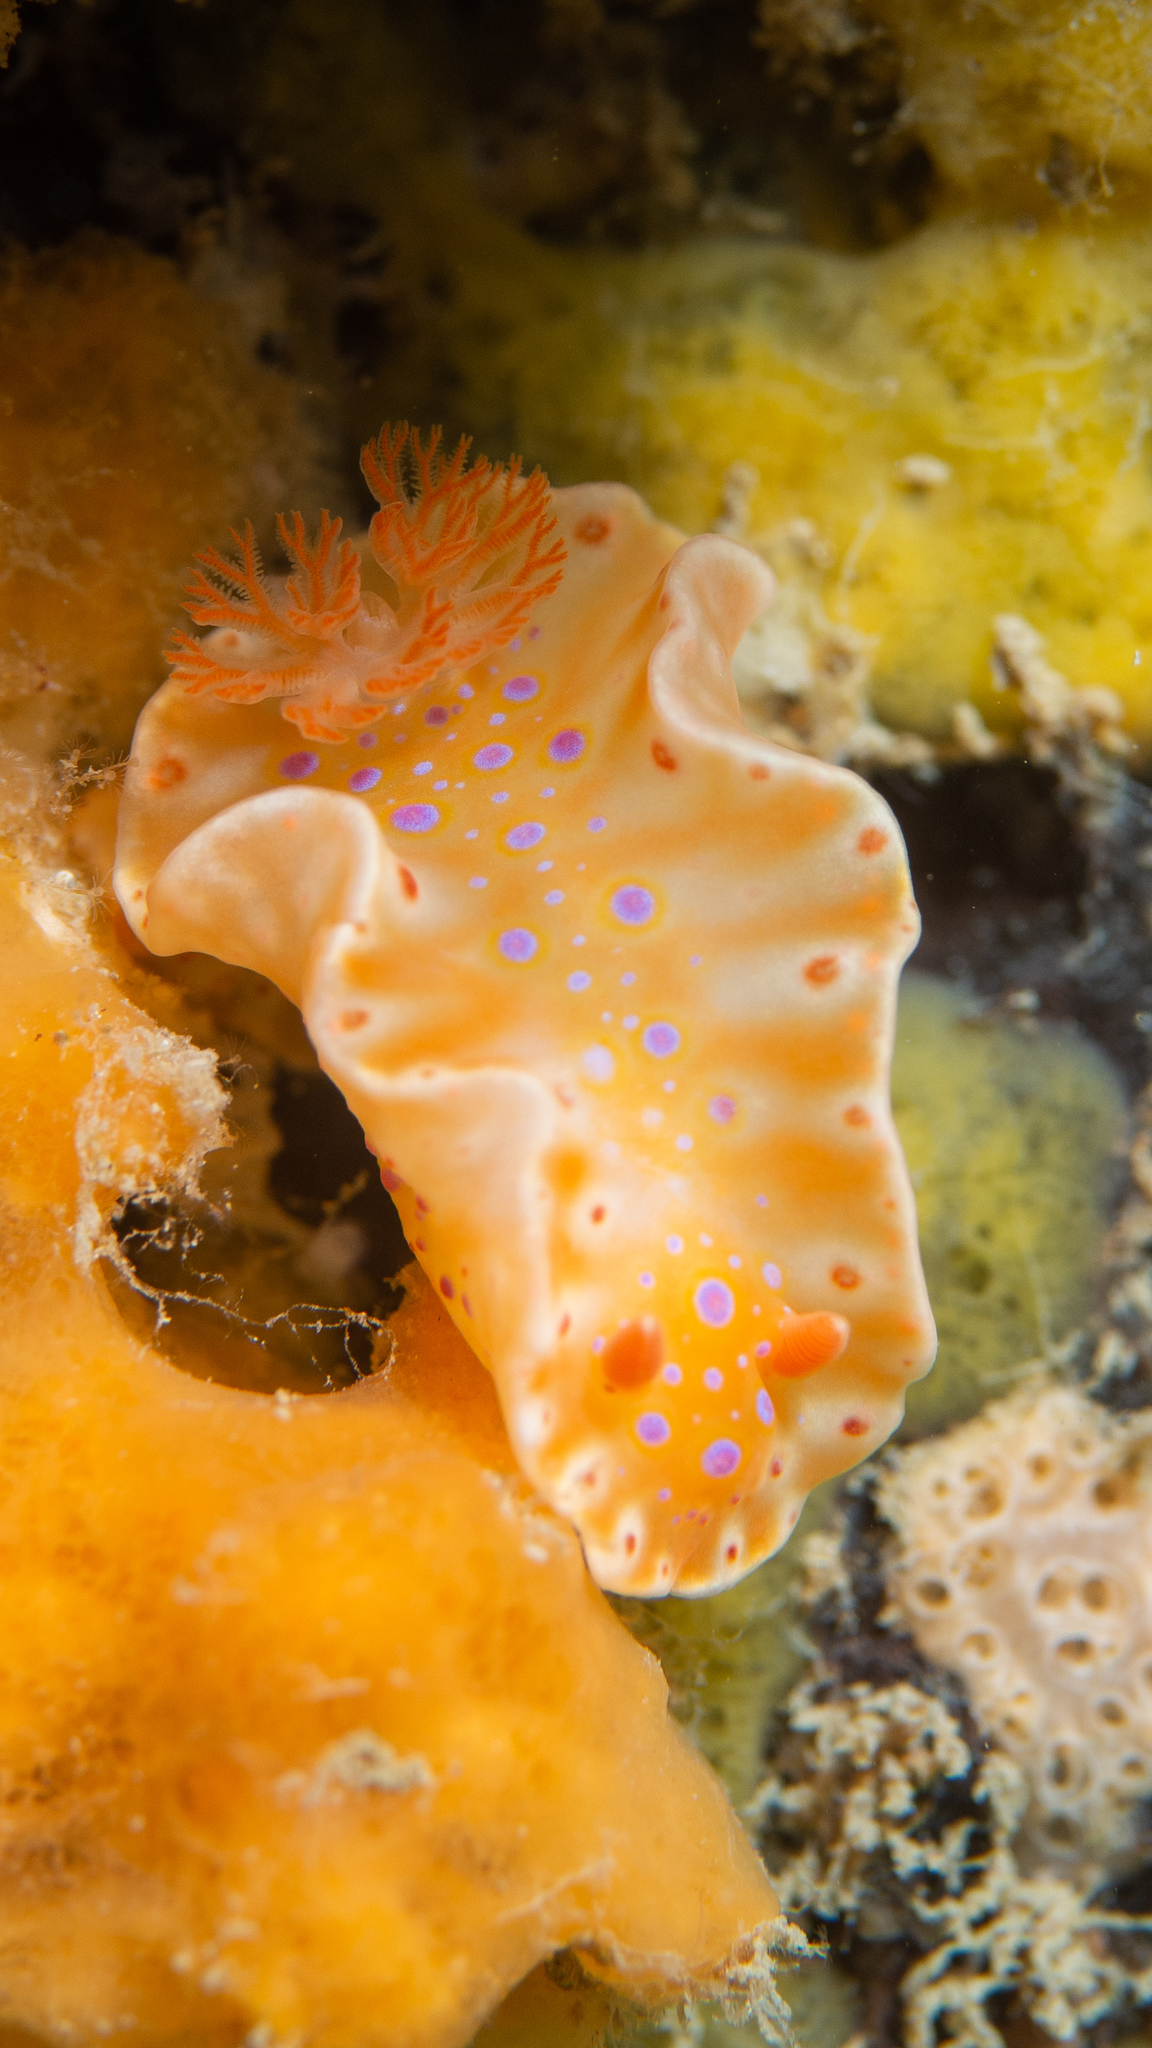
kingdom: Animalia
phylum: Mollusca
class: Gastropoda
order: Nudibranchia
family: Chromodorididae
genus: Ceratosoma
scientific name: Ceratosoma brevicaudatum
